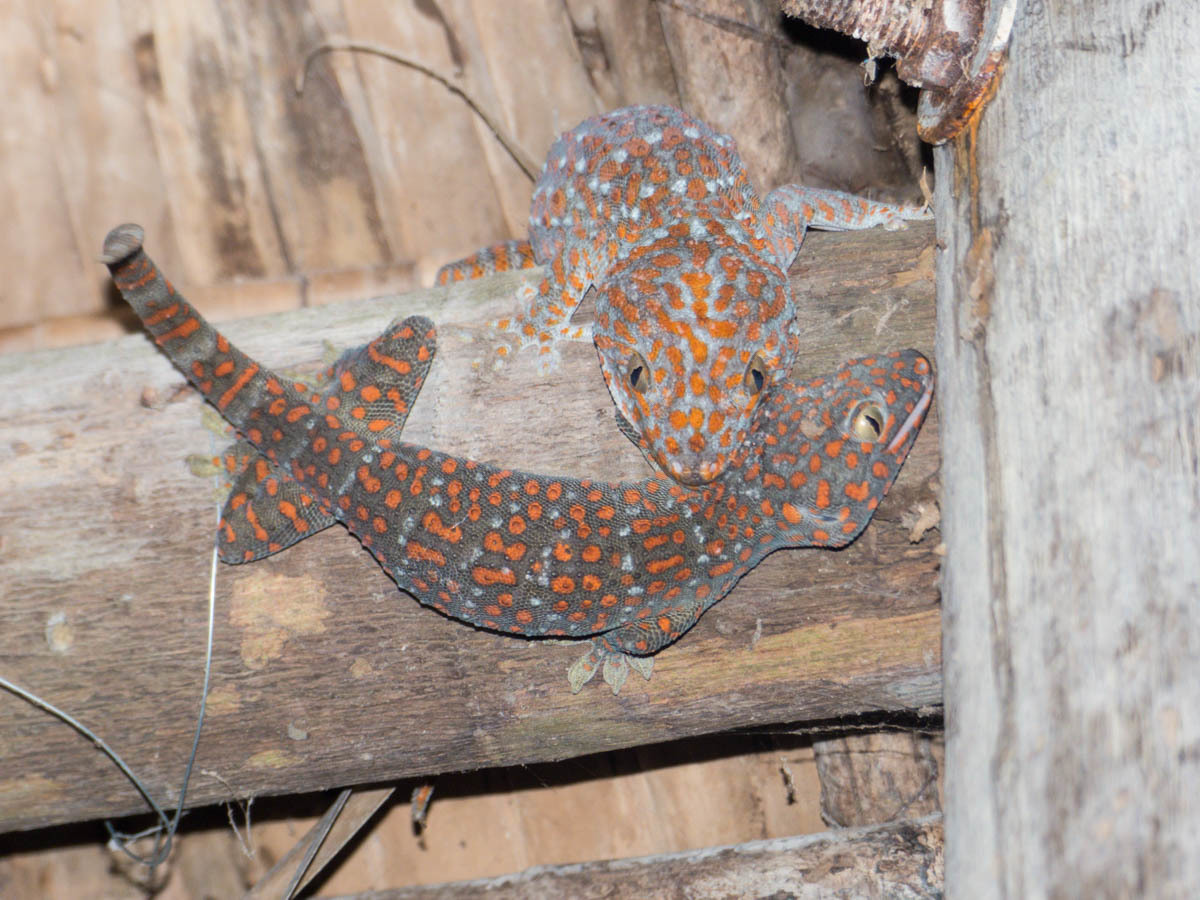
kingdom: Animalia
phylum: Chordata
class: Squamata
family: Gekkonidae
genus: Gekko
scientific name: Gekko gecko
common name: Tokay gecko
